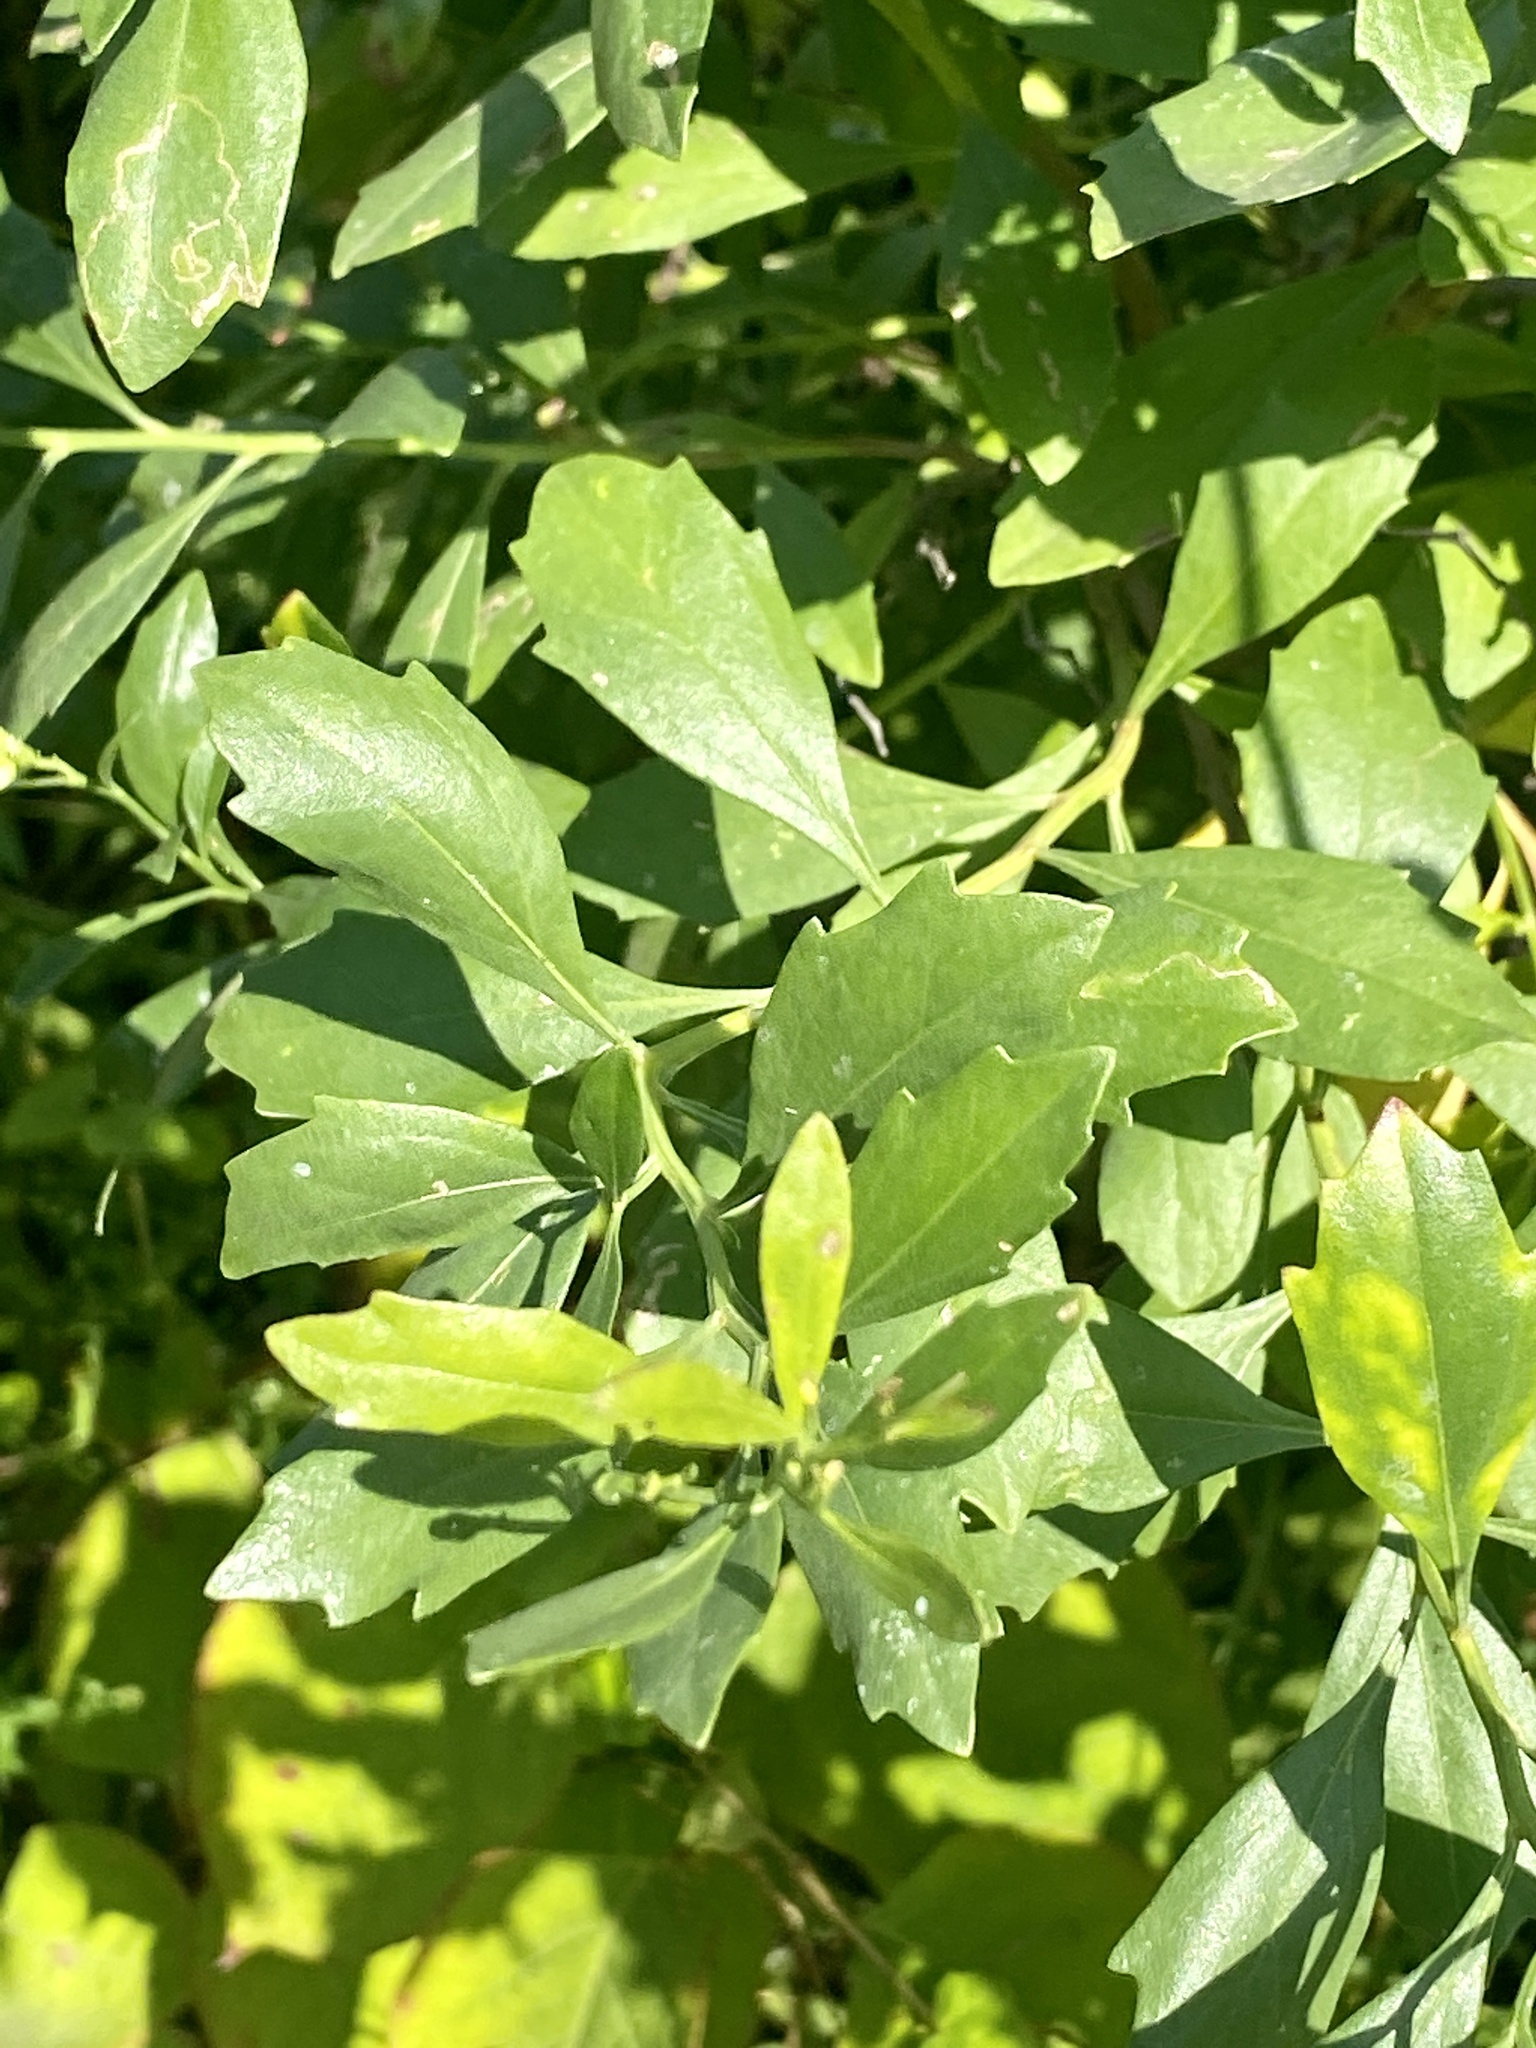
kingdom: Plantae
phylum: Tracheophyta
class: Magnoliopsida
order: Asterales
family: Asteraceae
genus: Baccharis
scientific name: Baccharis halimifolia
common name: Eastern baccharis
